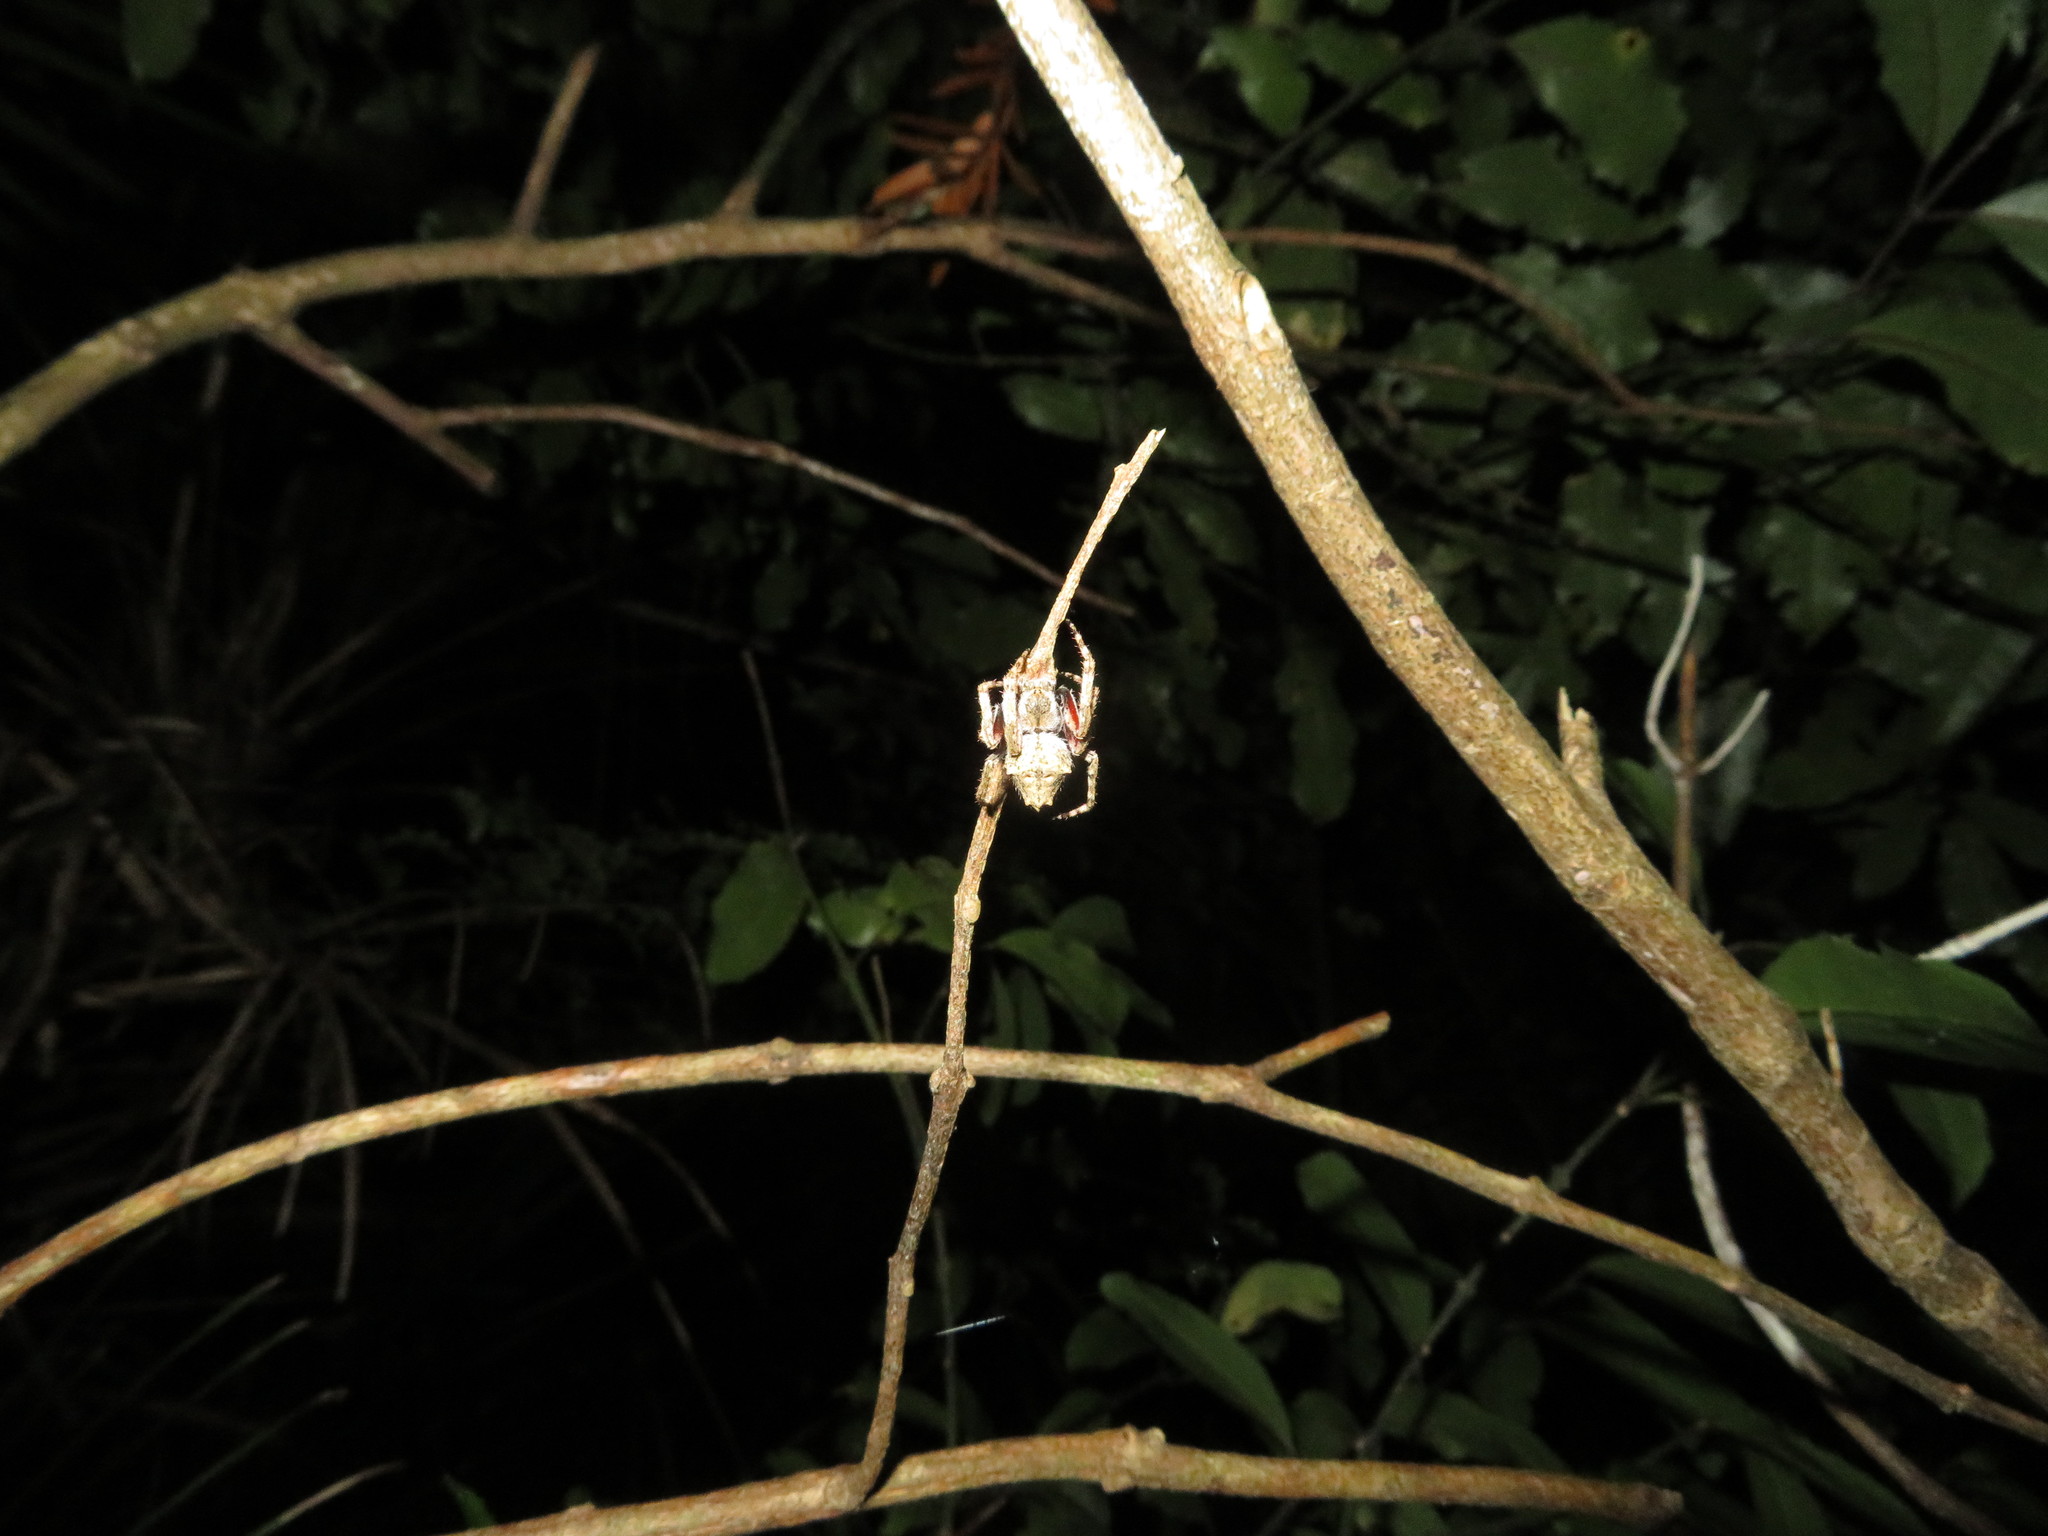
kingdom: Animalia
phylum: Arthropoda
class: Arachnida
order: Araneae
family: Araneidae
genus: Eriophora
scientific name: Eriophora pustulosa
